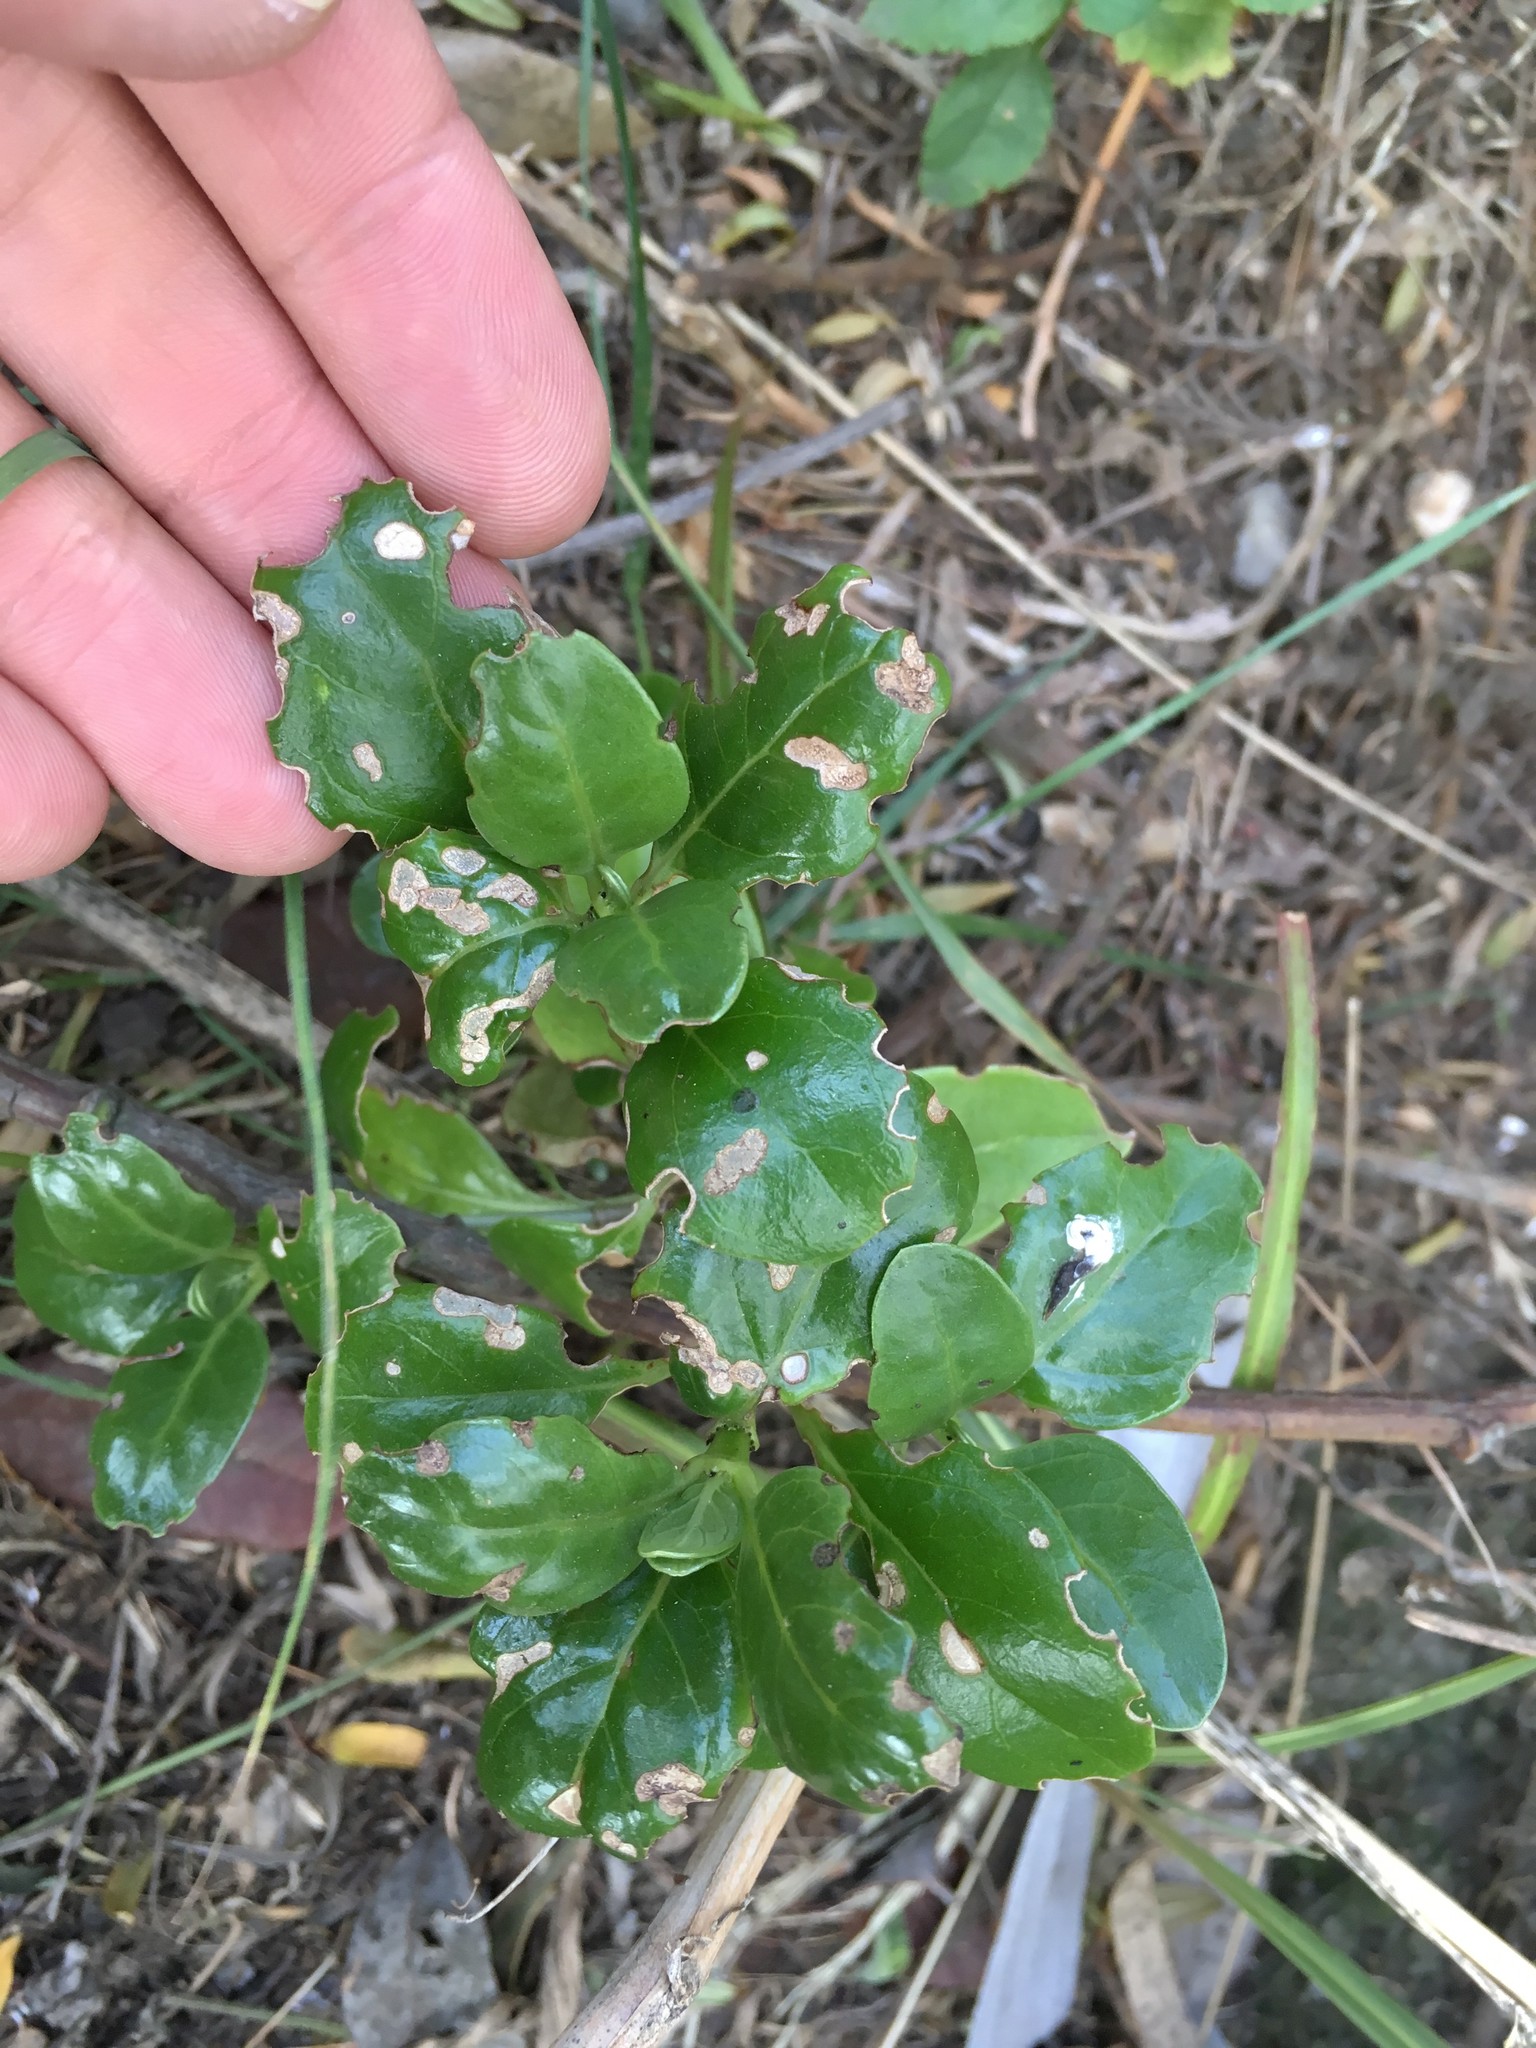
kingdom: Plantae
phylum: Tracheophyta
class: Magnoliopsida
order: Gentianales
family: Rubiaceae
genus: Coprosma
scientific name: Coprosma repens
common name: Tree bedstraw
